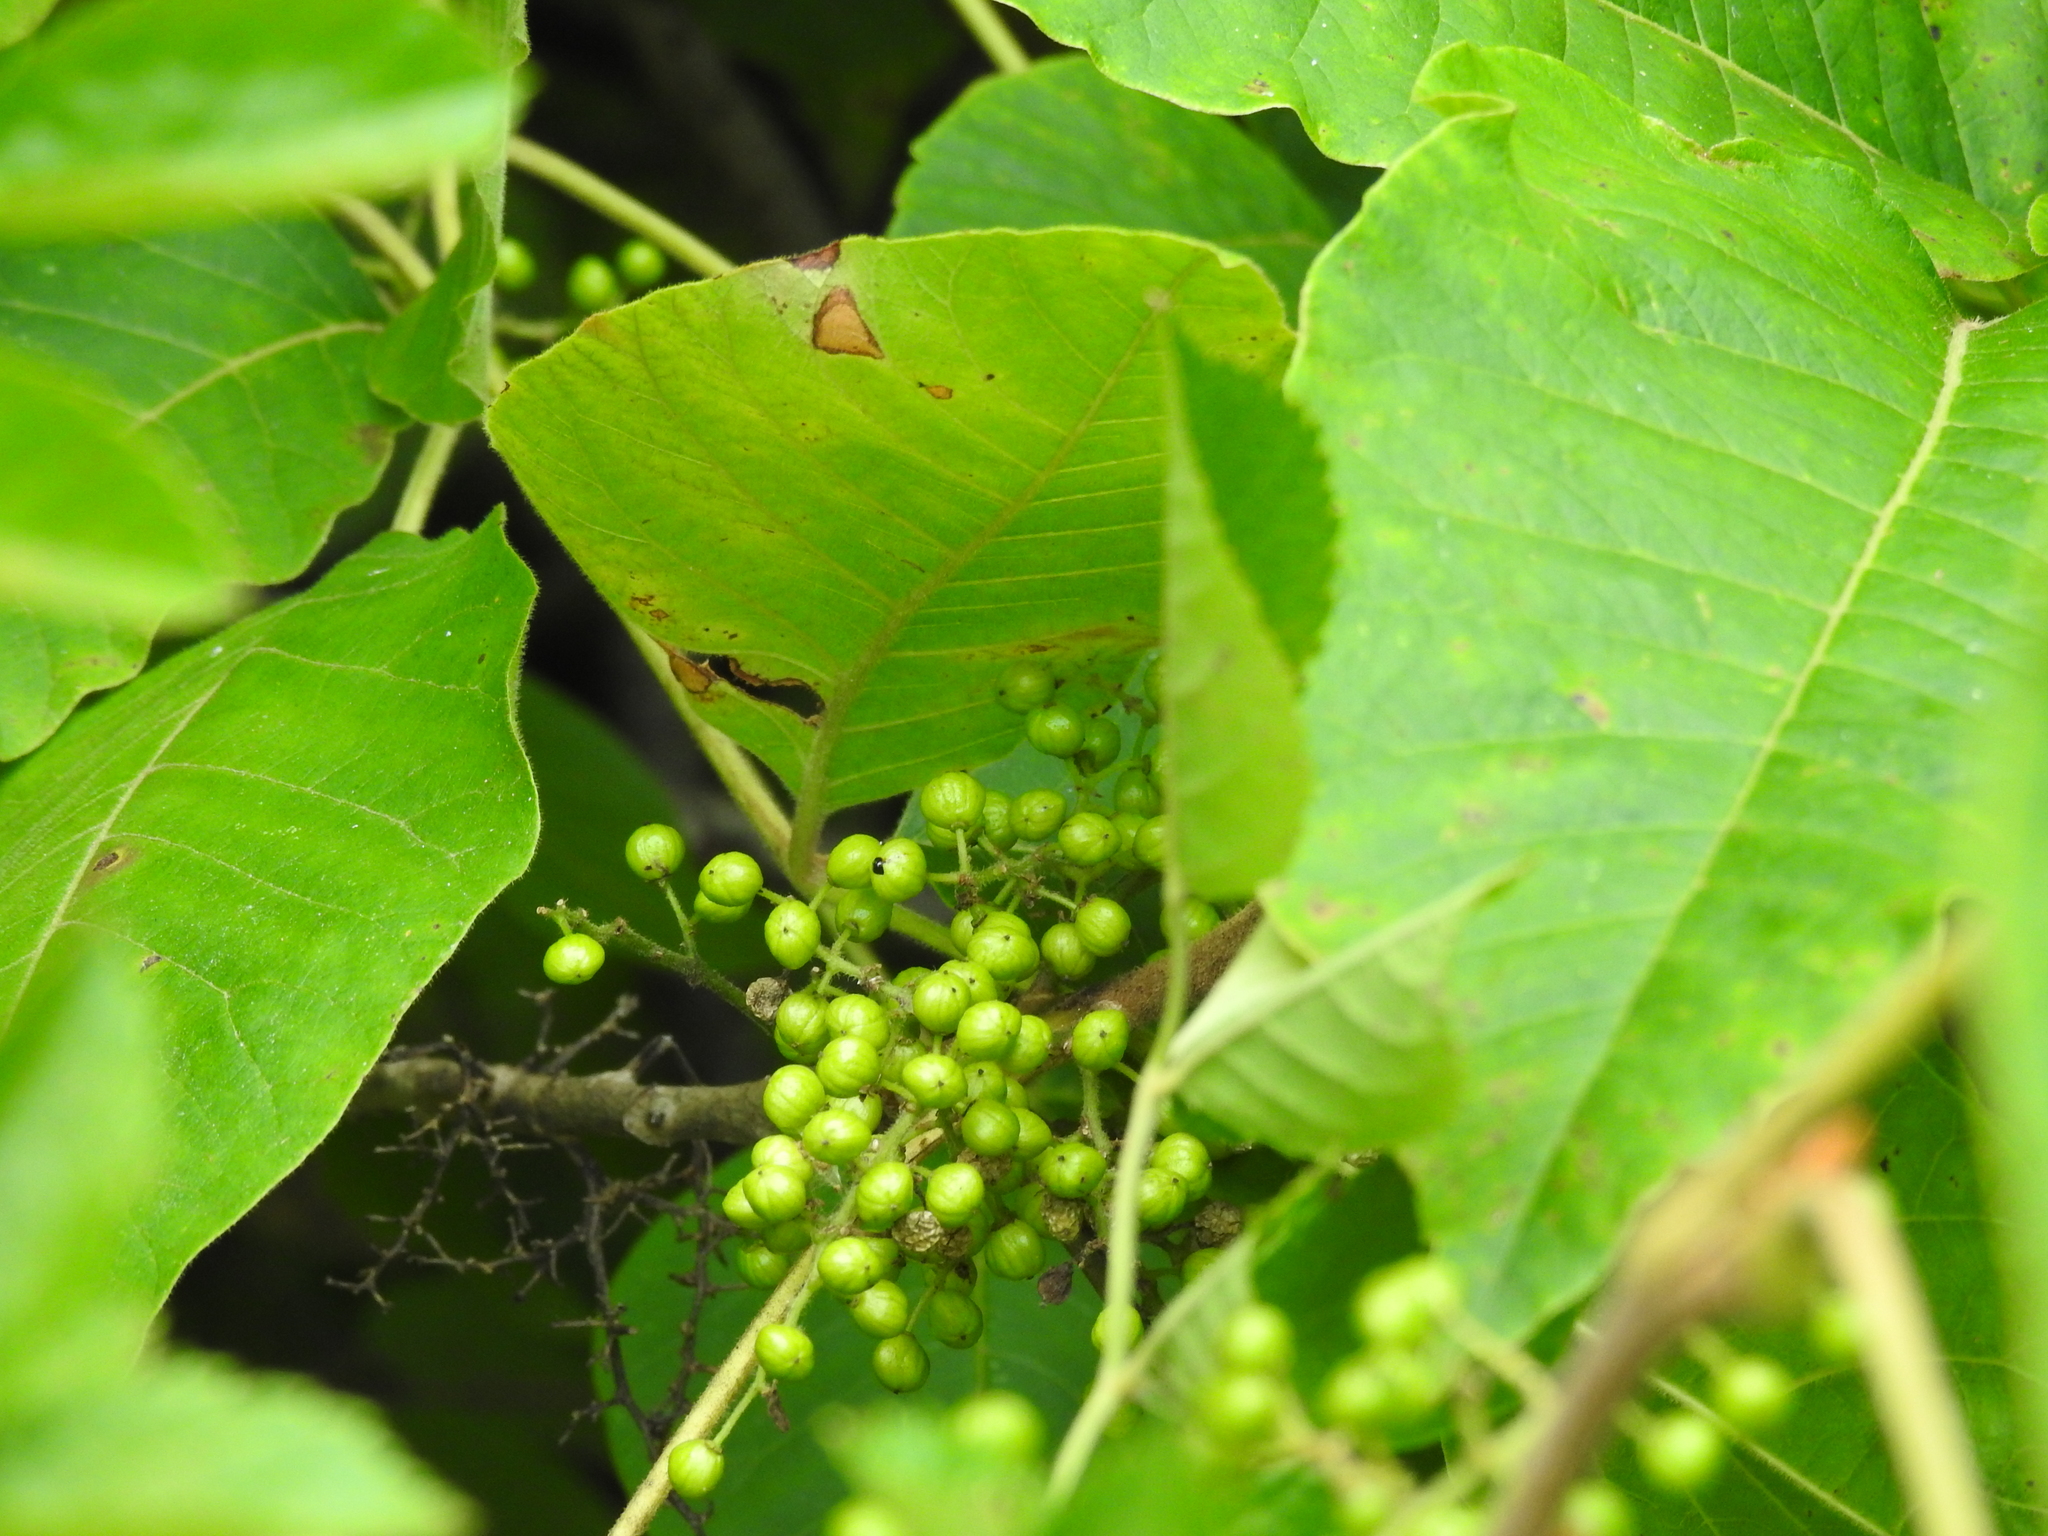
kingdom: Plantae
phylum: Tracheophyta
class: Magnoliopsida
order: Sapindales
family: Anacardiaceae
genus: Toxicodendron
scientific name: Toxicodendron radicans
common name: Poison ivy
